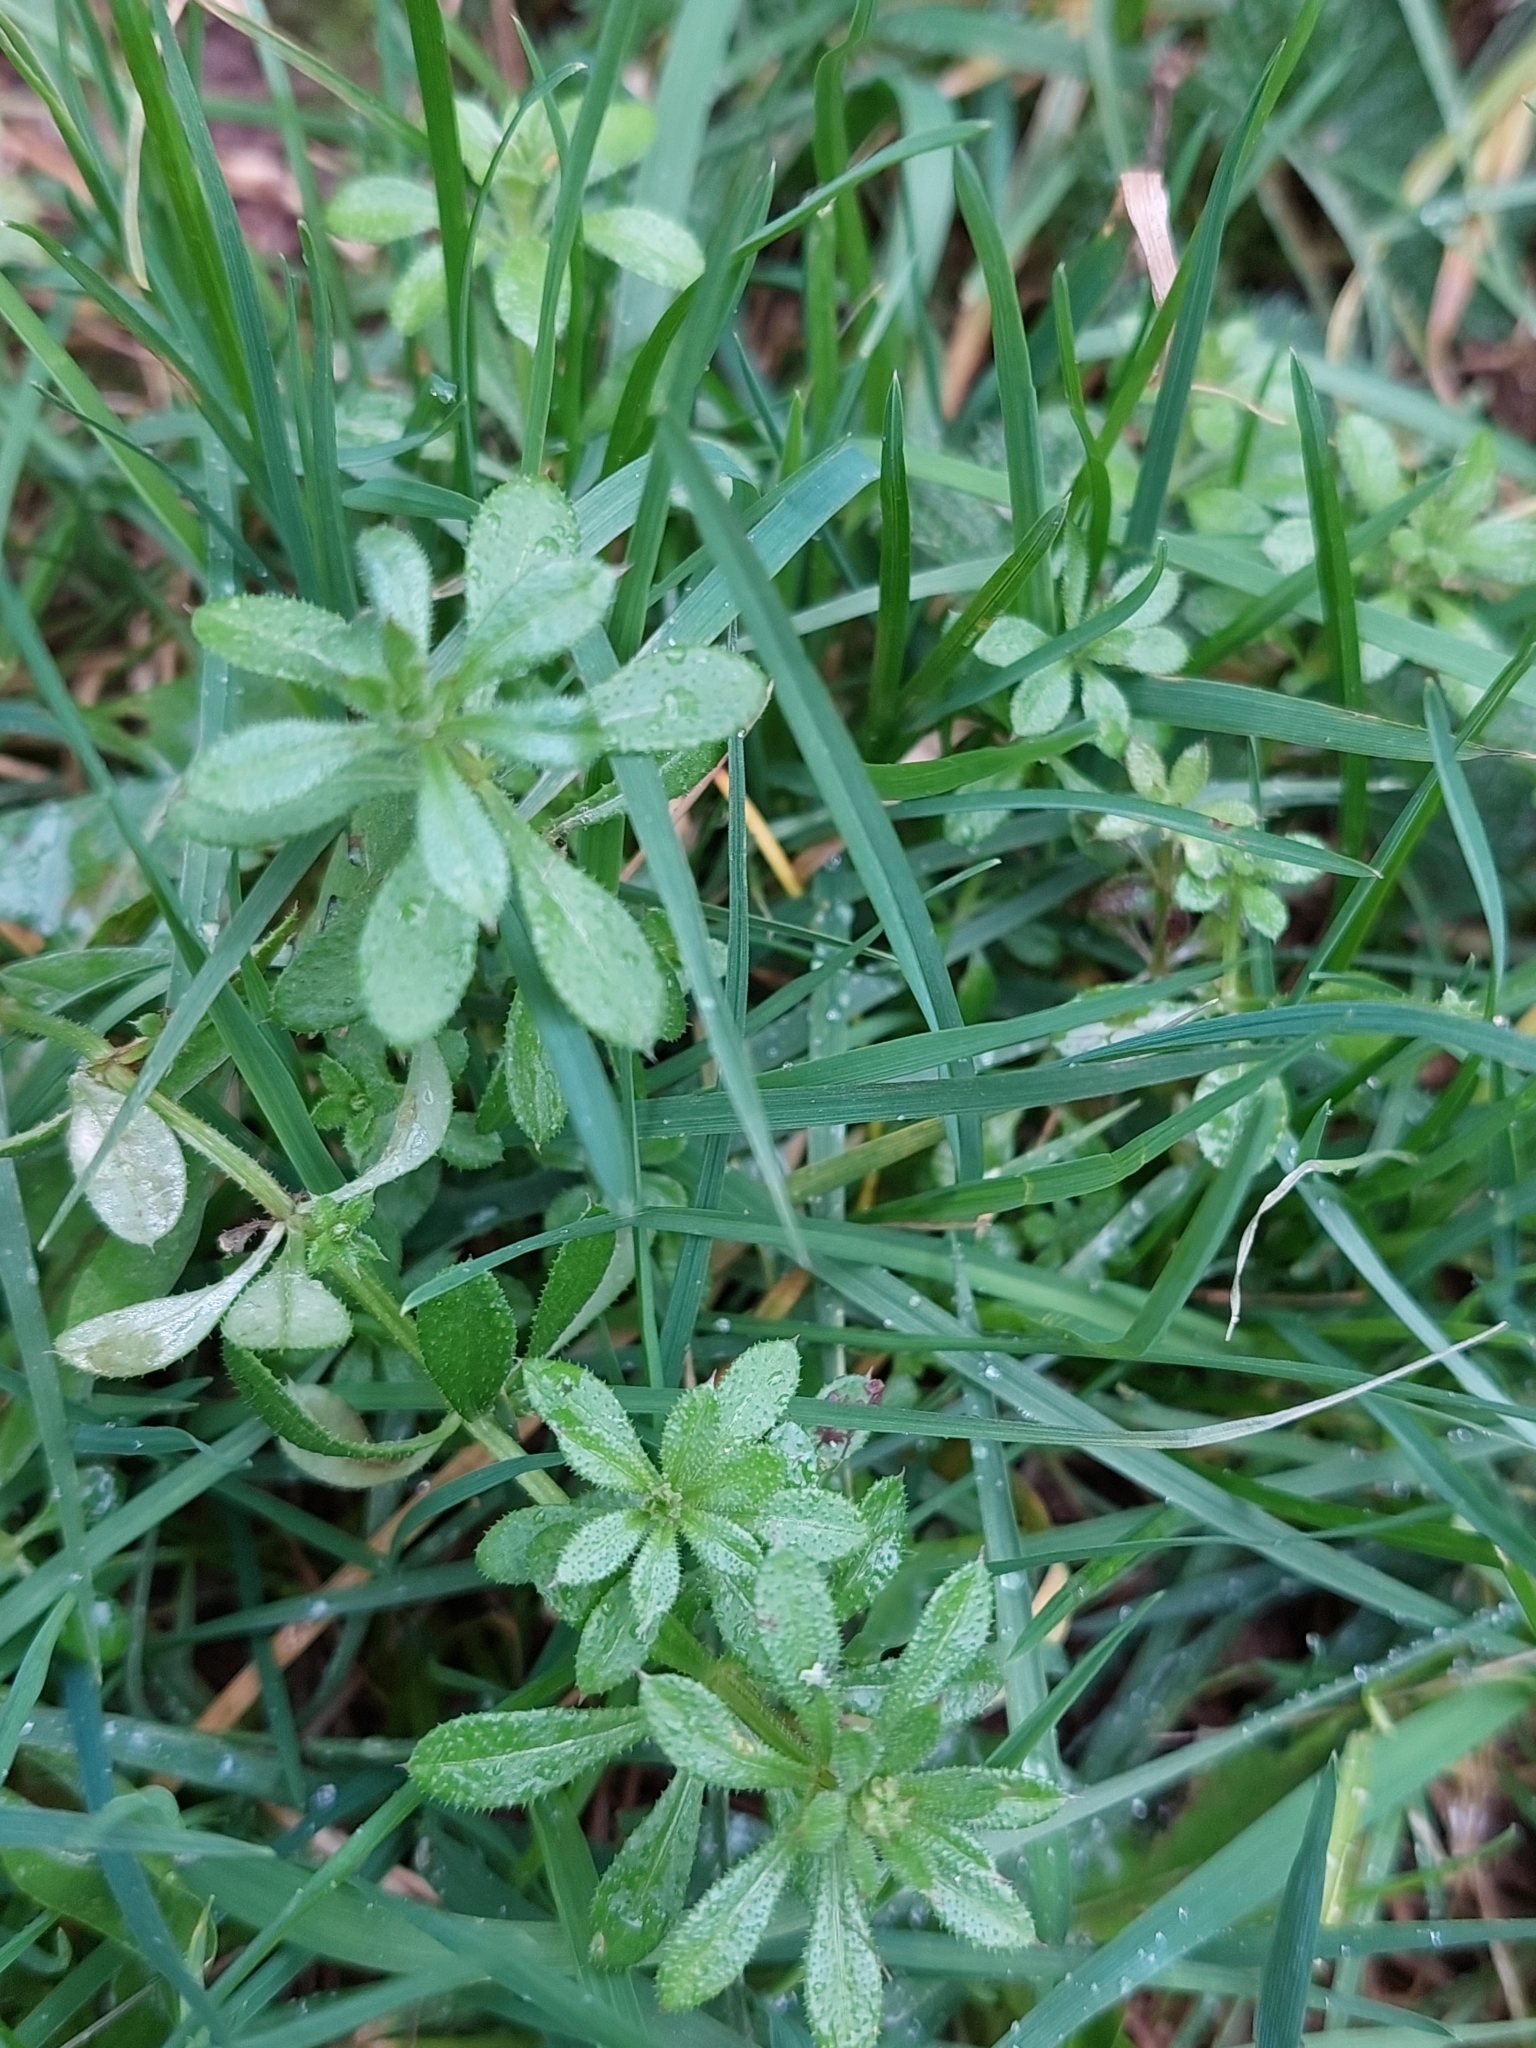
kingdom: Plantae
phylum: Tracheophyta
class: Magnoliopsida
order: Gentianales
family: Rubiaceae
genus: Galium
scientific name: Galium aparine
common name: Cleavers
